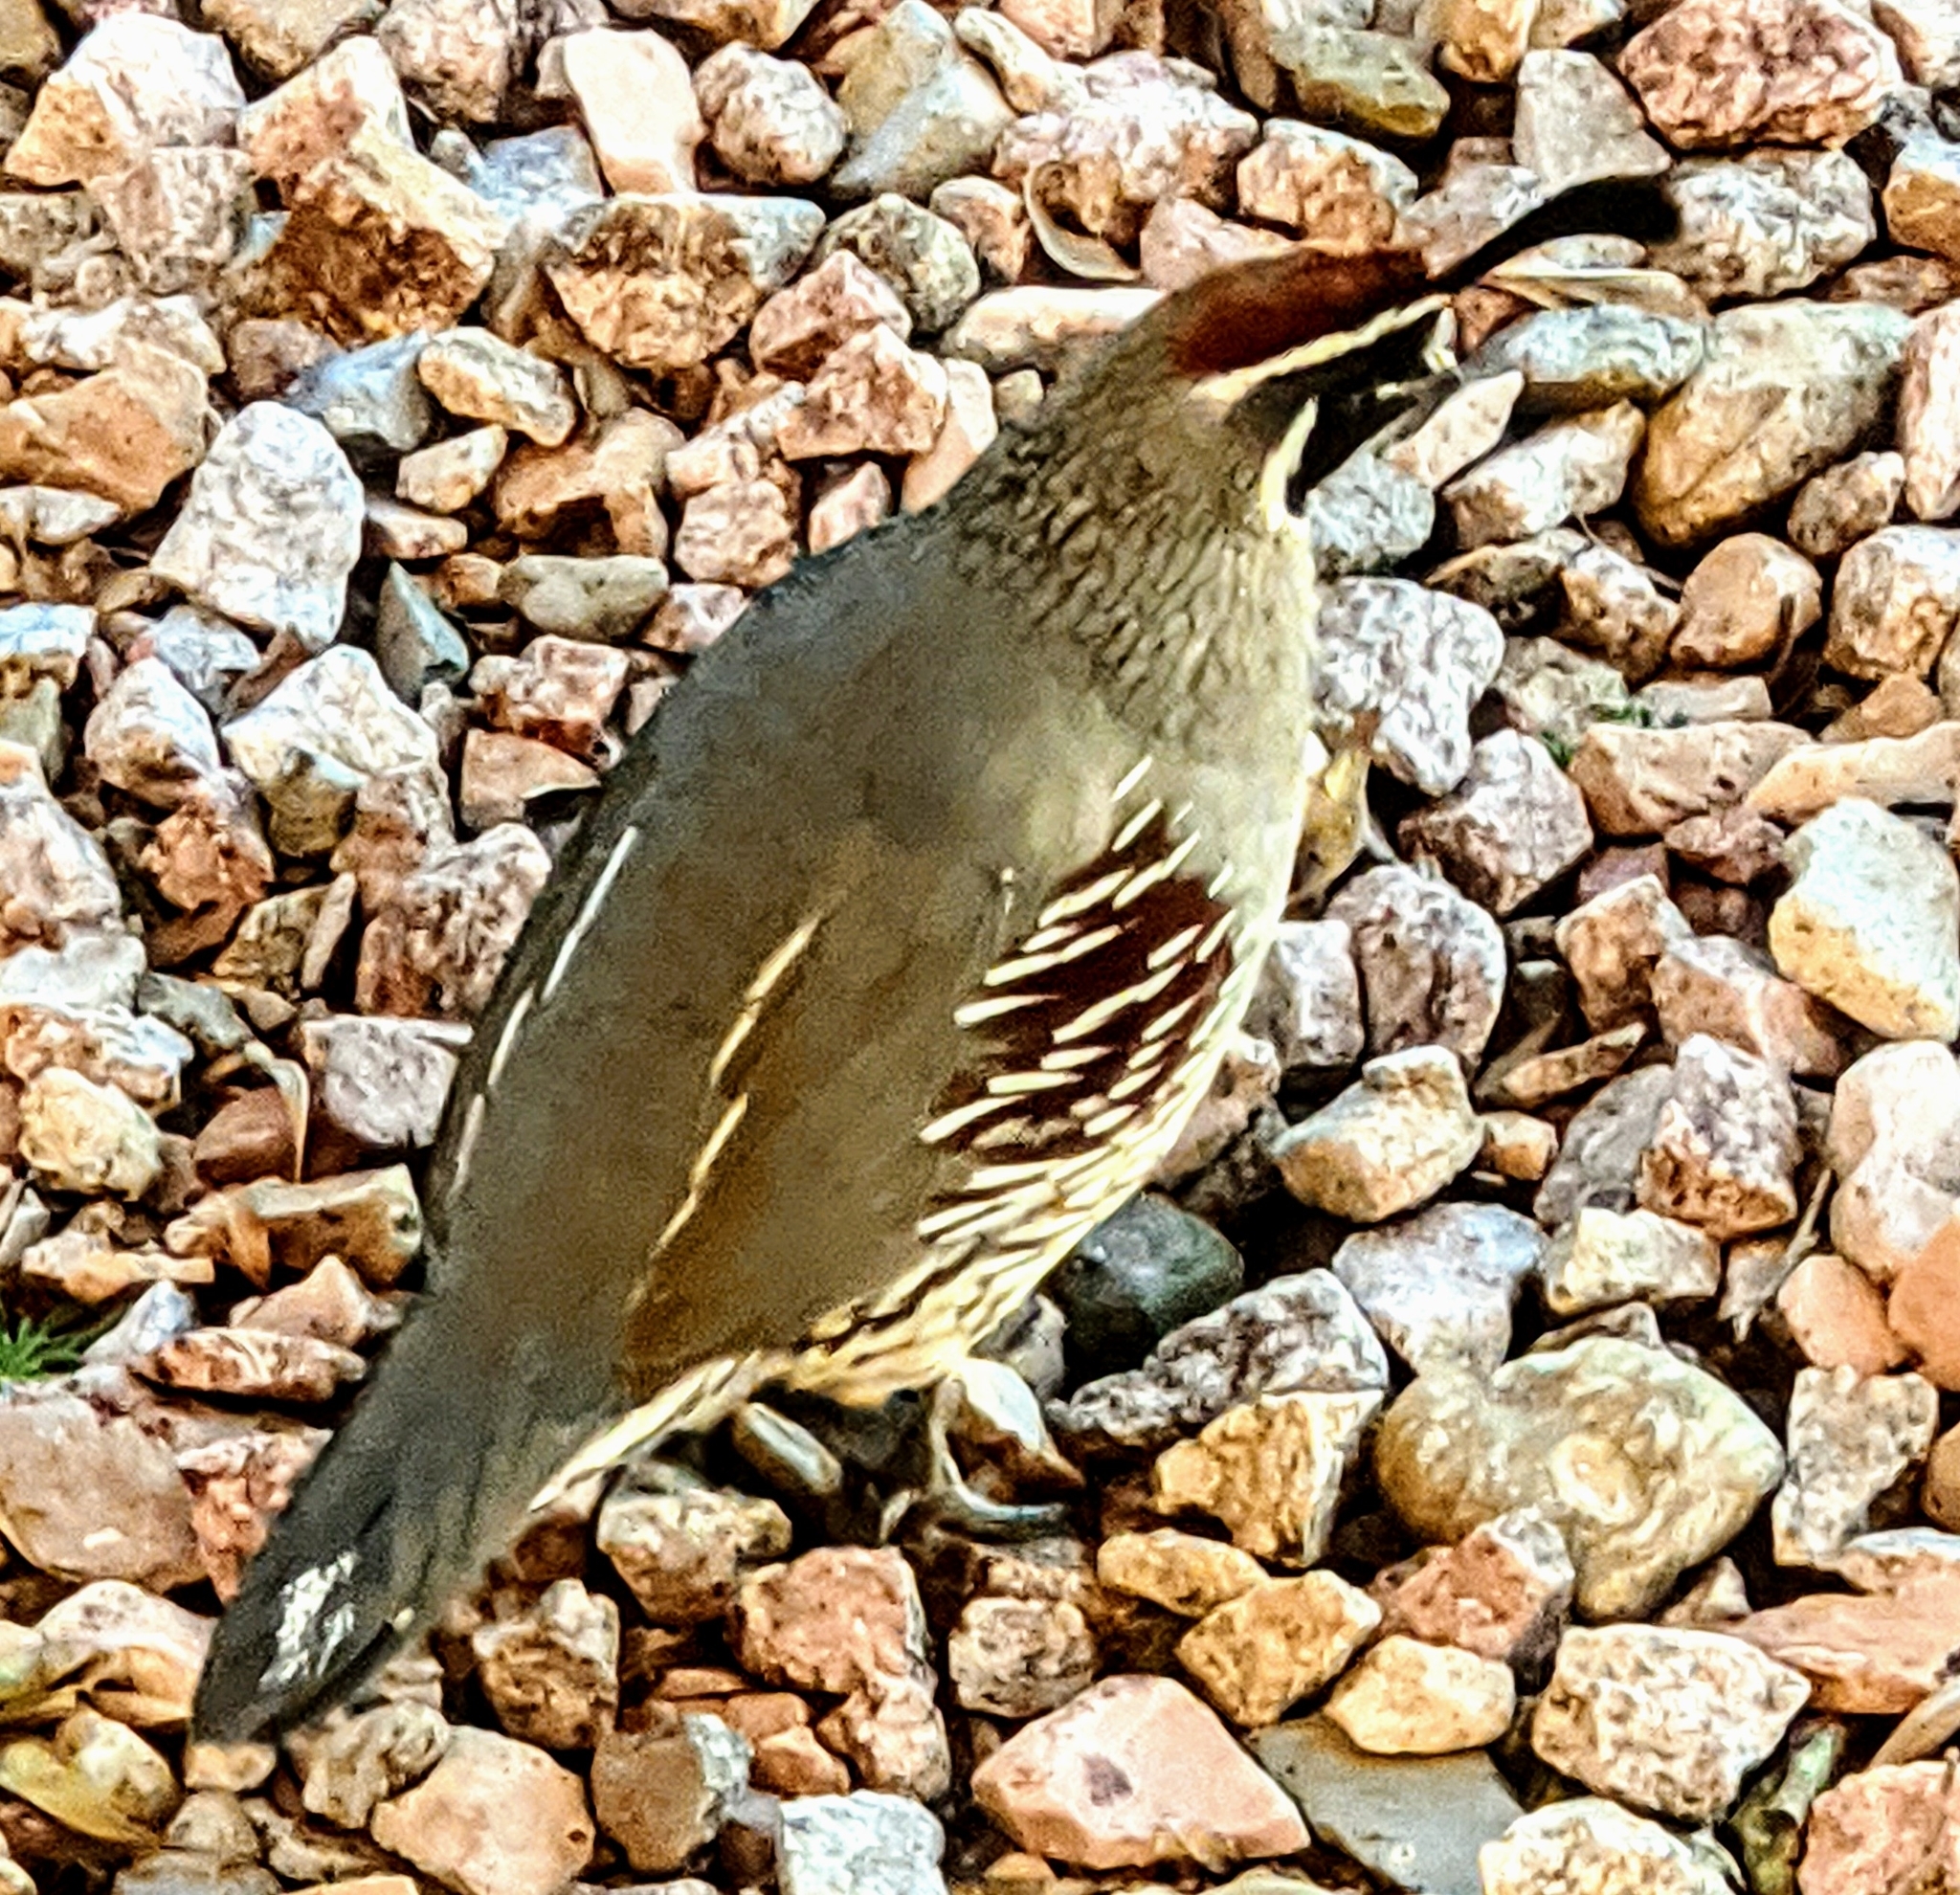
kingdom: Animalia
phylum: Chordata
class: Aves
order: Galliformes
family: Odontophoridae
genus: Callipepla
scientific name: Callipepla gambelii
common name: Gambel's quail
